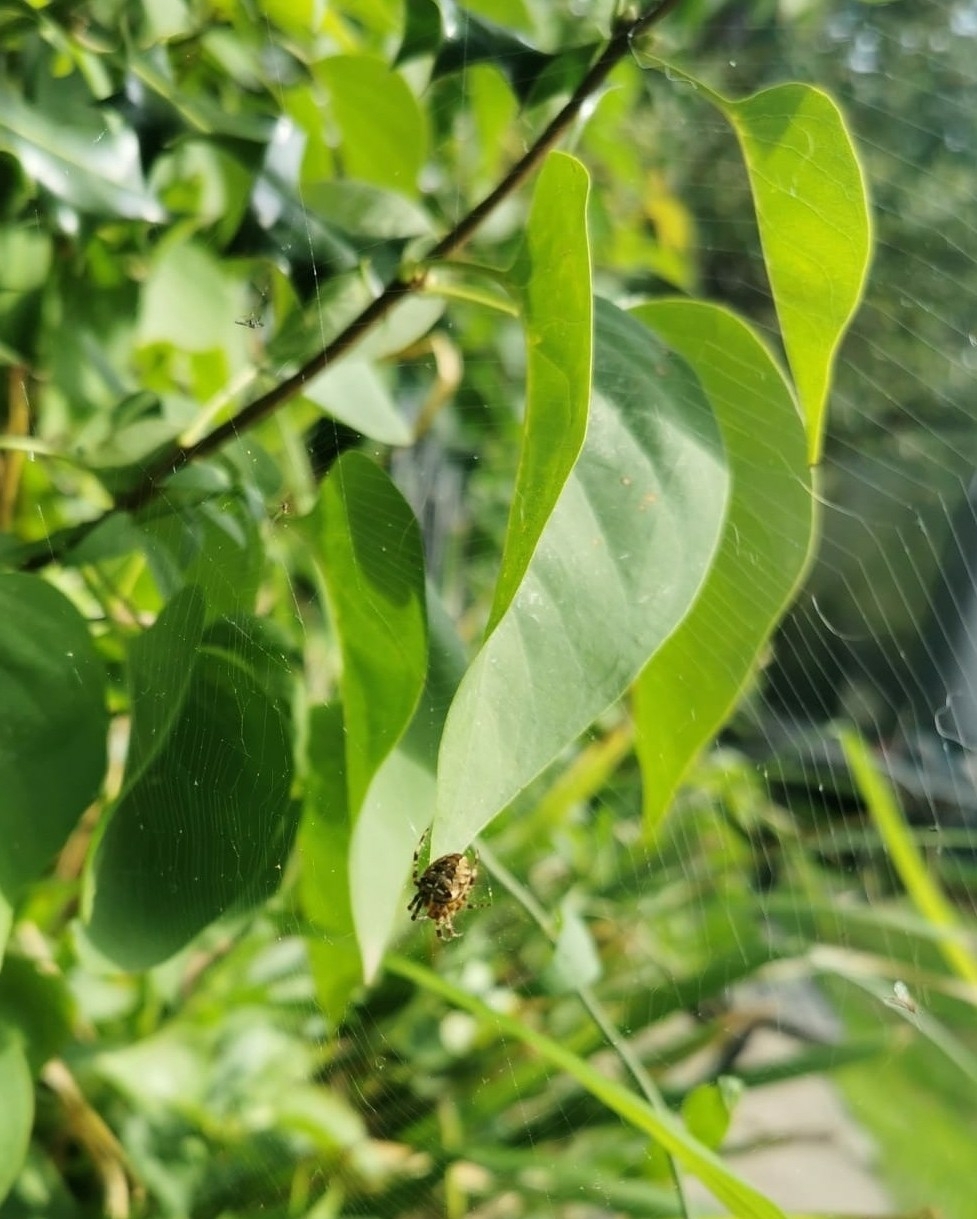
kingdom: Animalia
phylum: Arthropoda
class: Arachnida
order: Araneae
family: Araneidae
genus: Araneus
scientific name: Araneus diadematus
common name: Cross orbweaver
